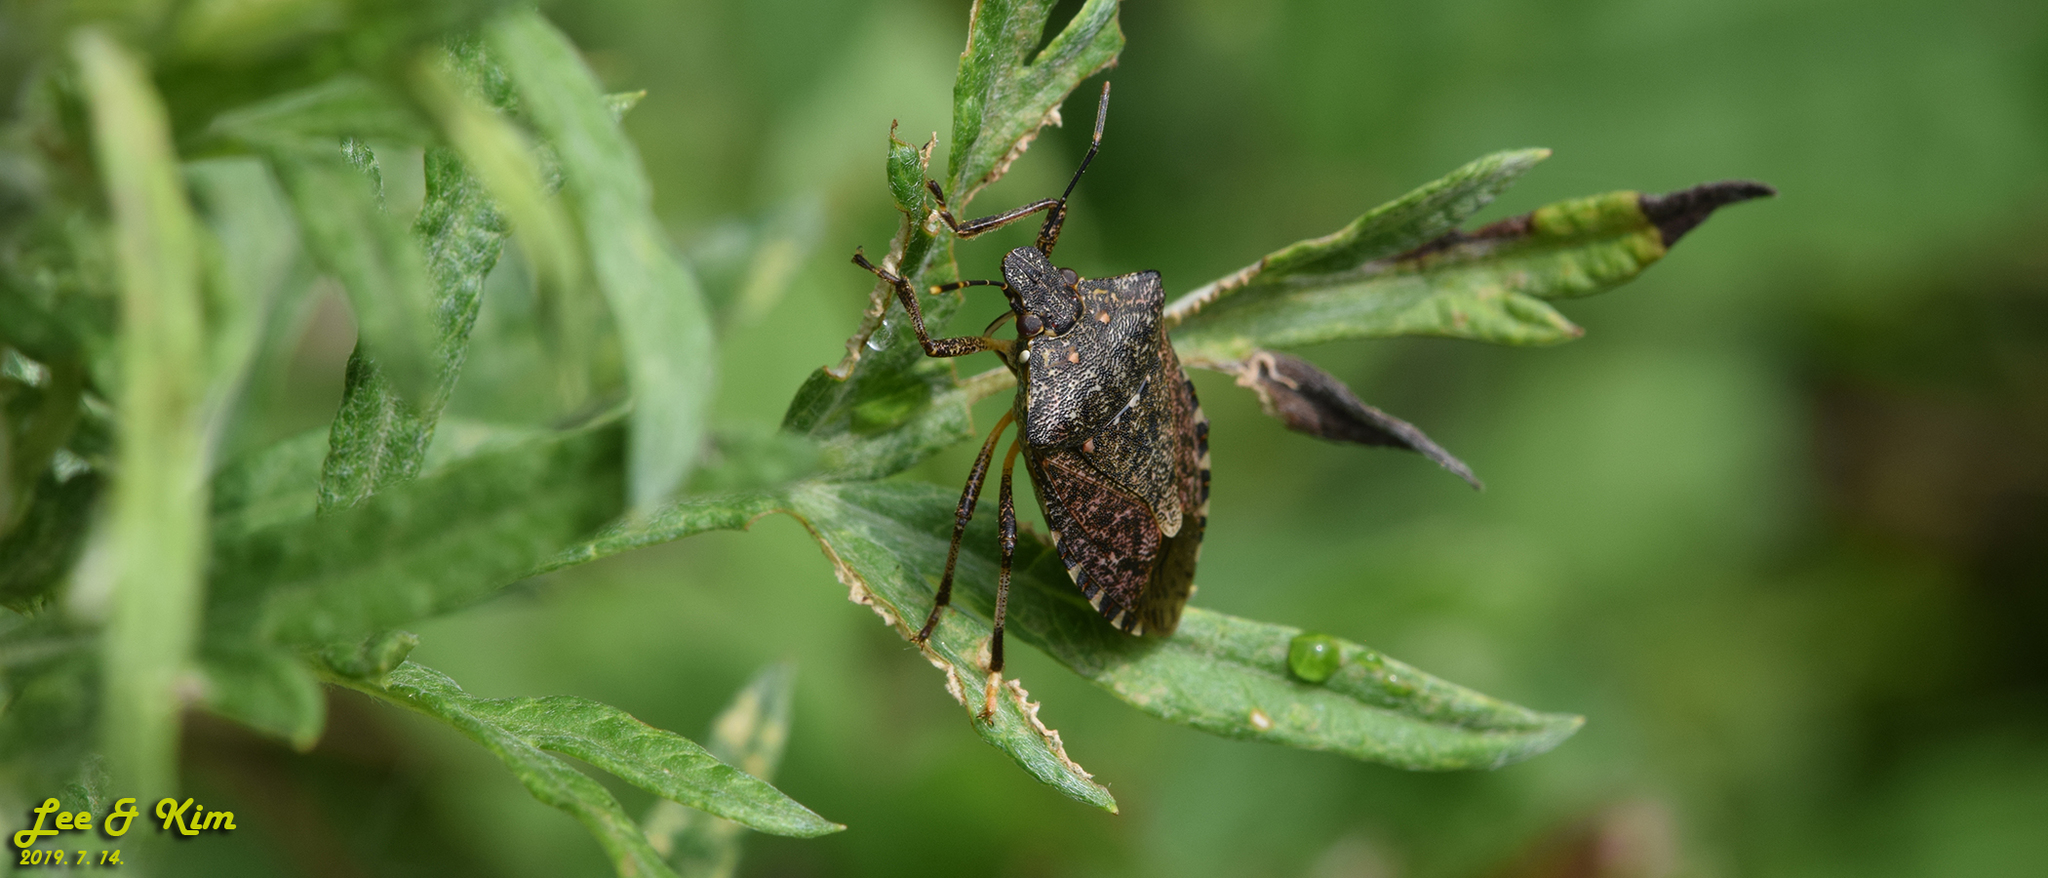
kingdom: Animalia
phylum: Arthropoda
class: Insecta
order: Hemiptera
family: Pentatomidae
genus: Halyomorpha
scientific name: Halyomorpha halys
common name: Brown marmorated stink bug
